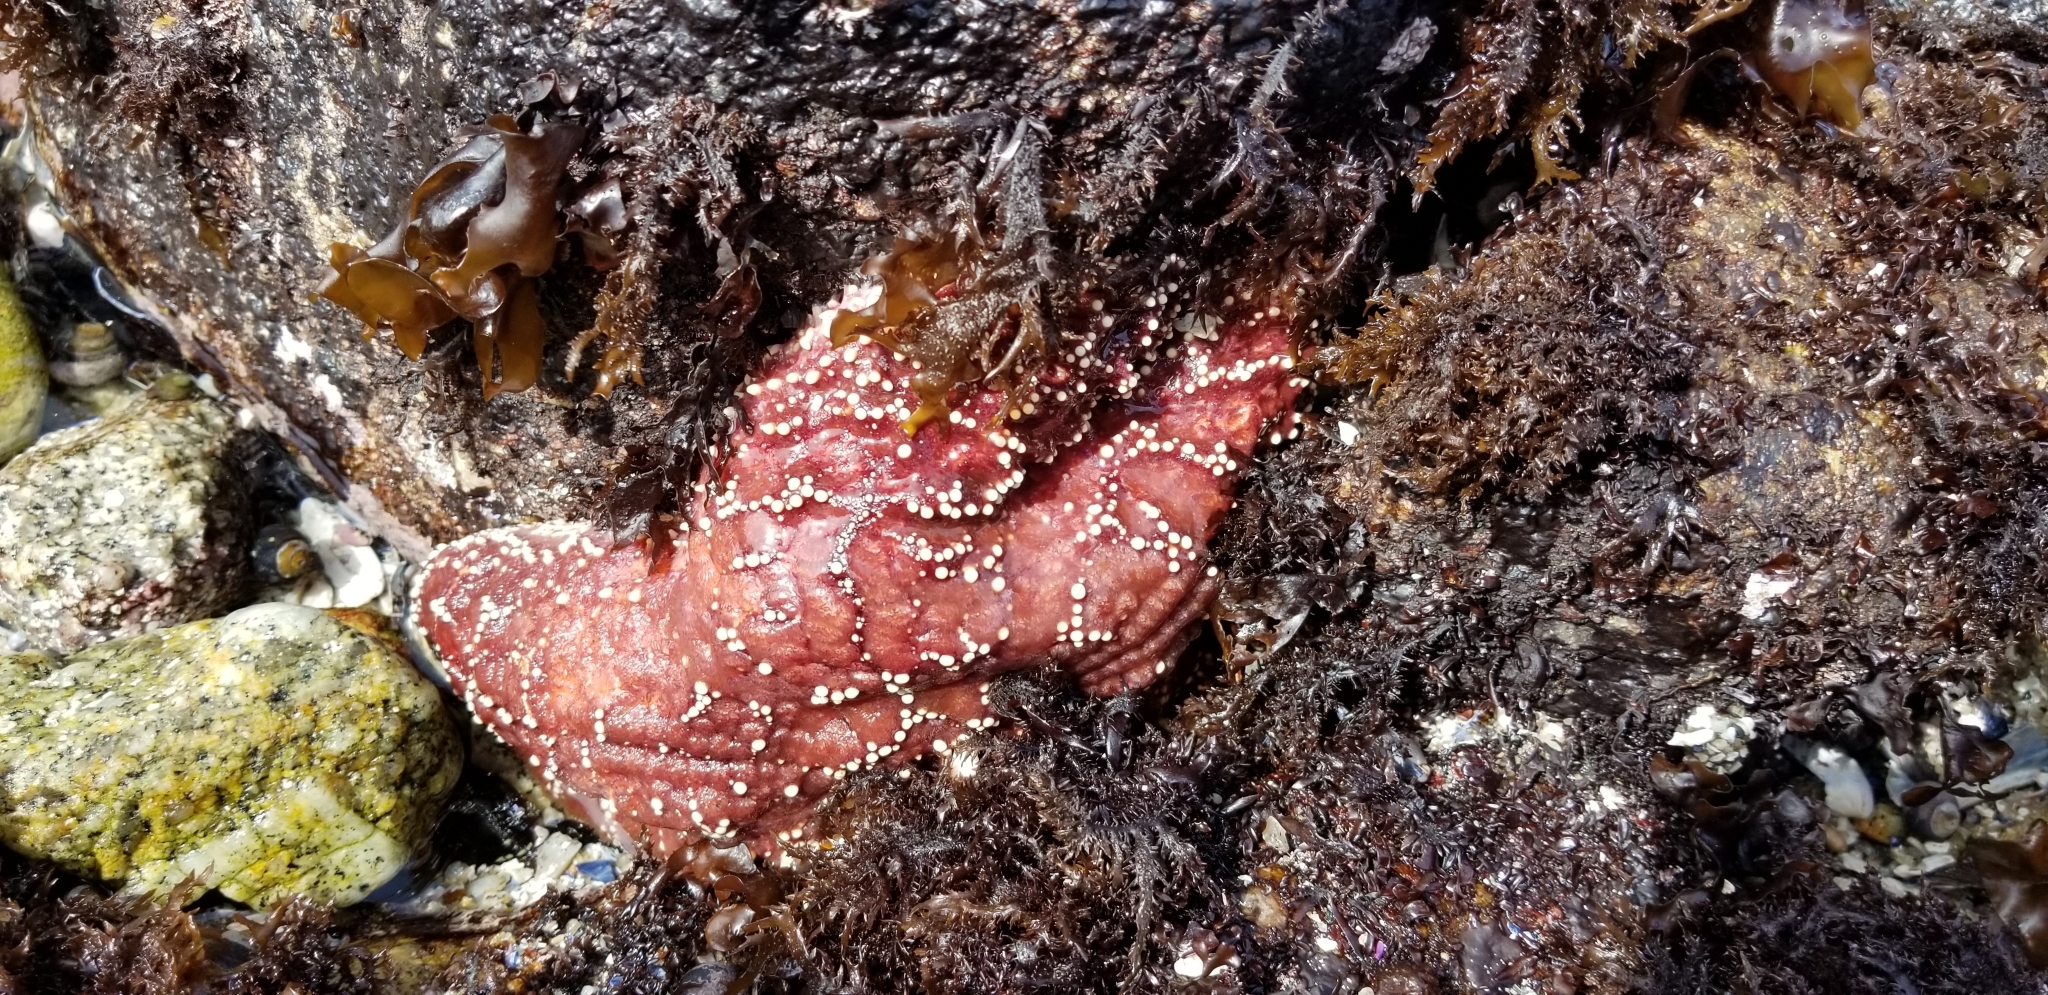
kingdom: Animalia
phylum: Echinodermata
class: Asteroidea
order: Forcipulatida
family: Asteriidae
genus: Pisaster
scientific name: Pisaster ochraceus
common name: Ochre stars
